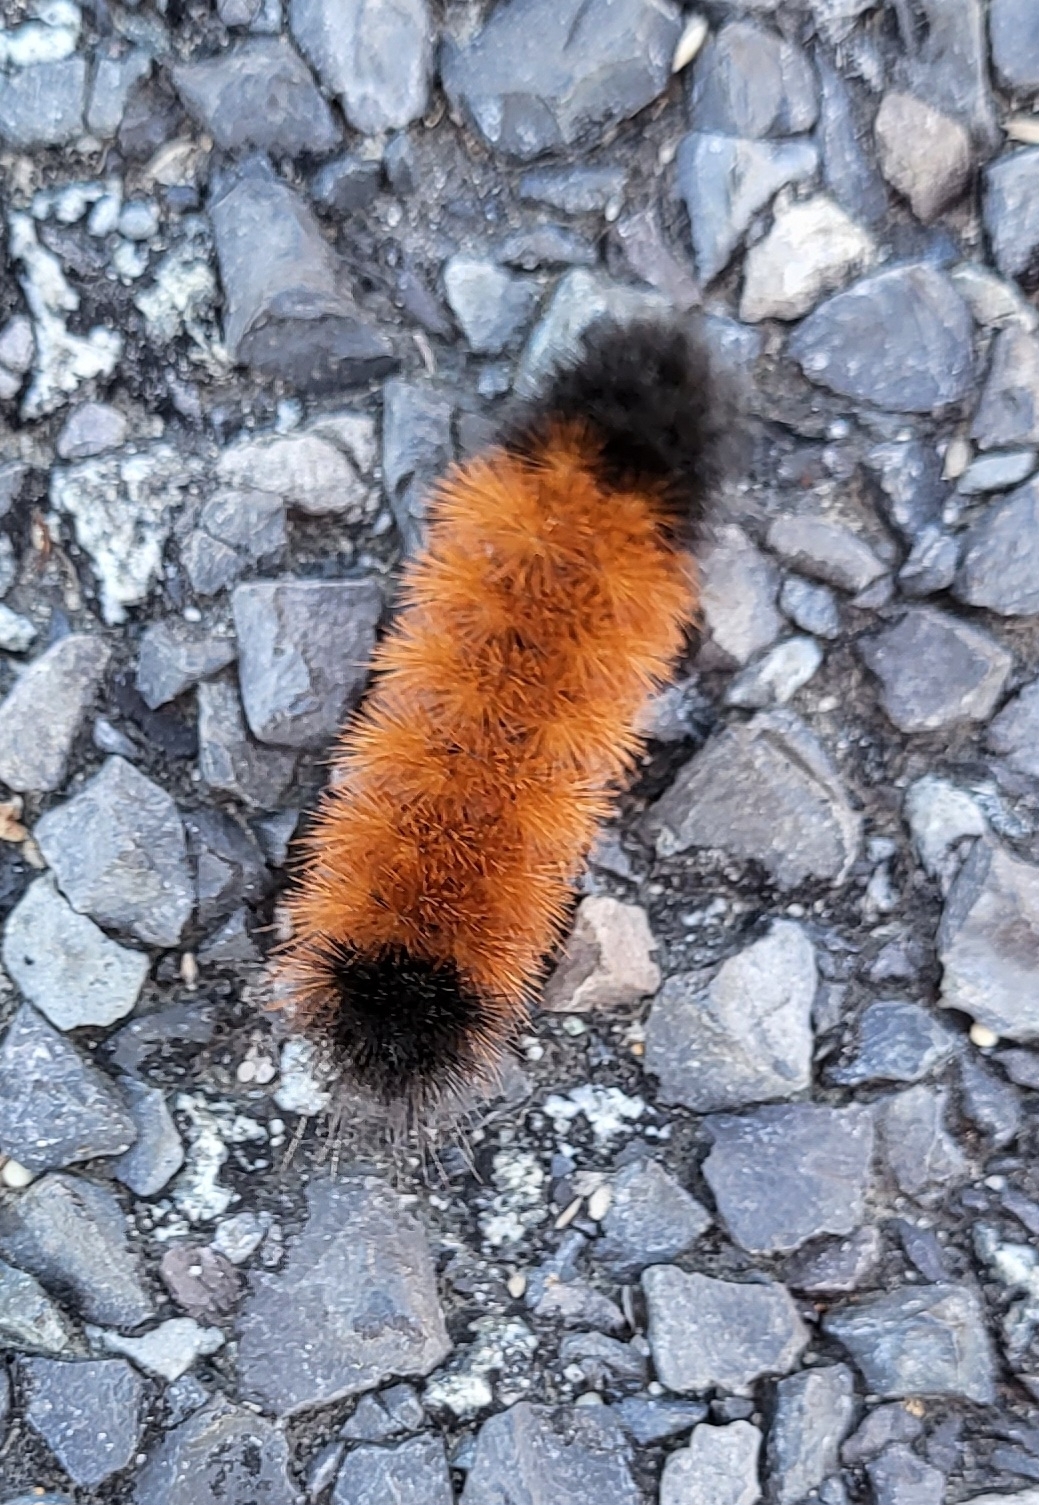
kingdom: Animalia
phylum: Arthropoda
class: Insecta
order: Lepidoptera
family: Erebidae
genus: Pyrrharctia
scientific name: Pyrrharctia isabella
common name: Isabella tiger moth
